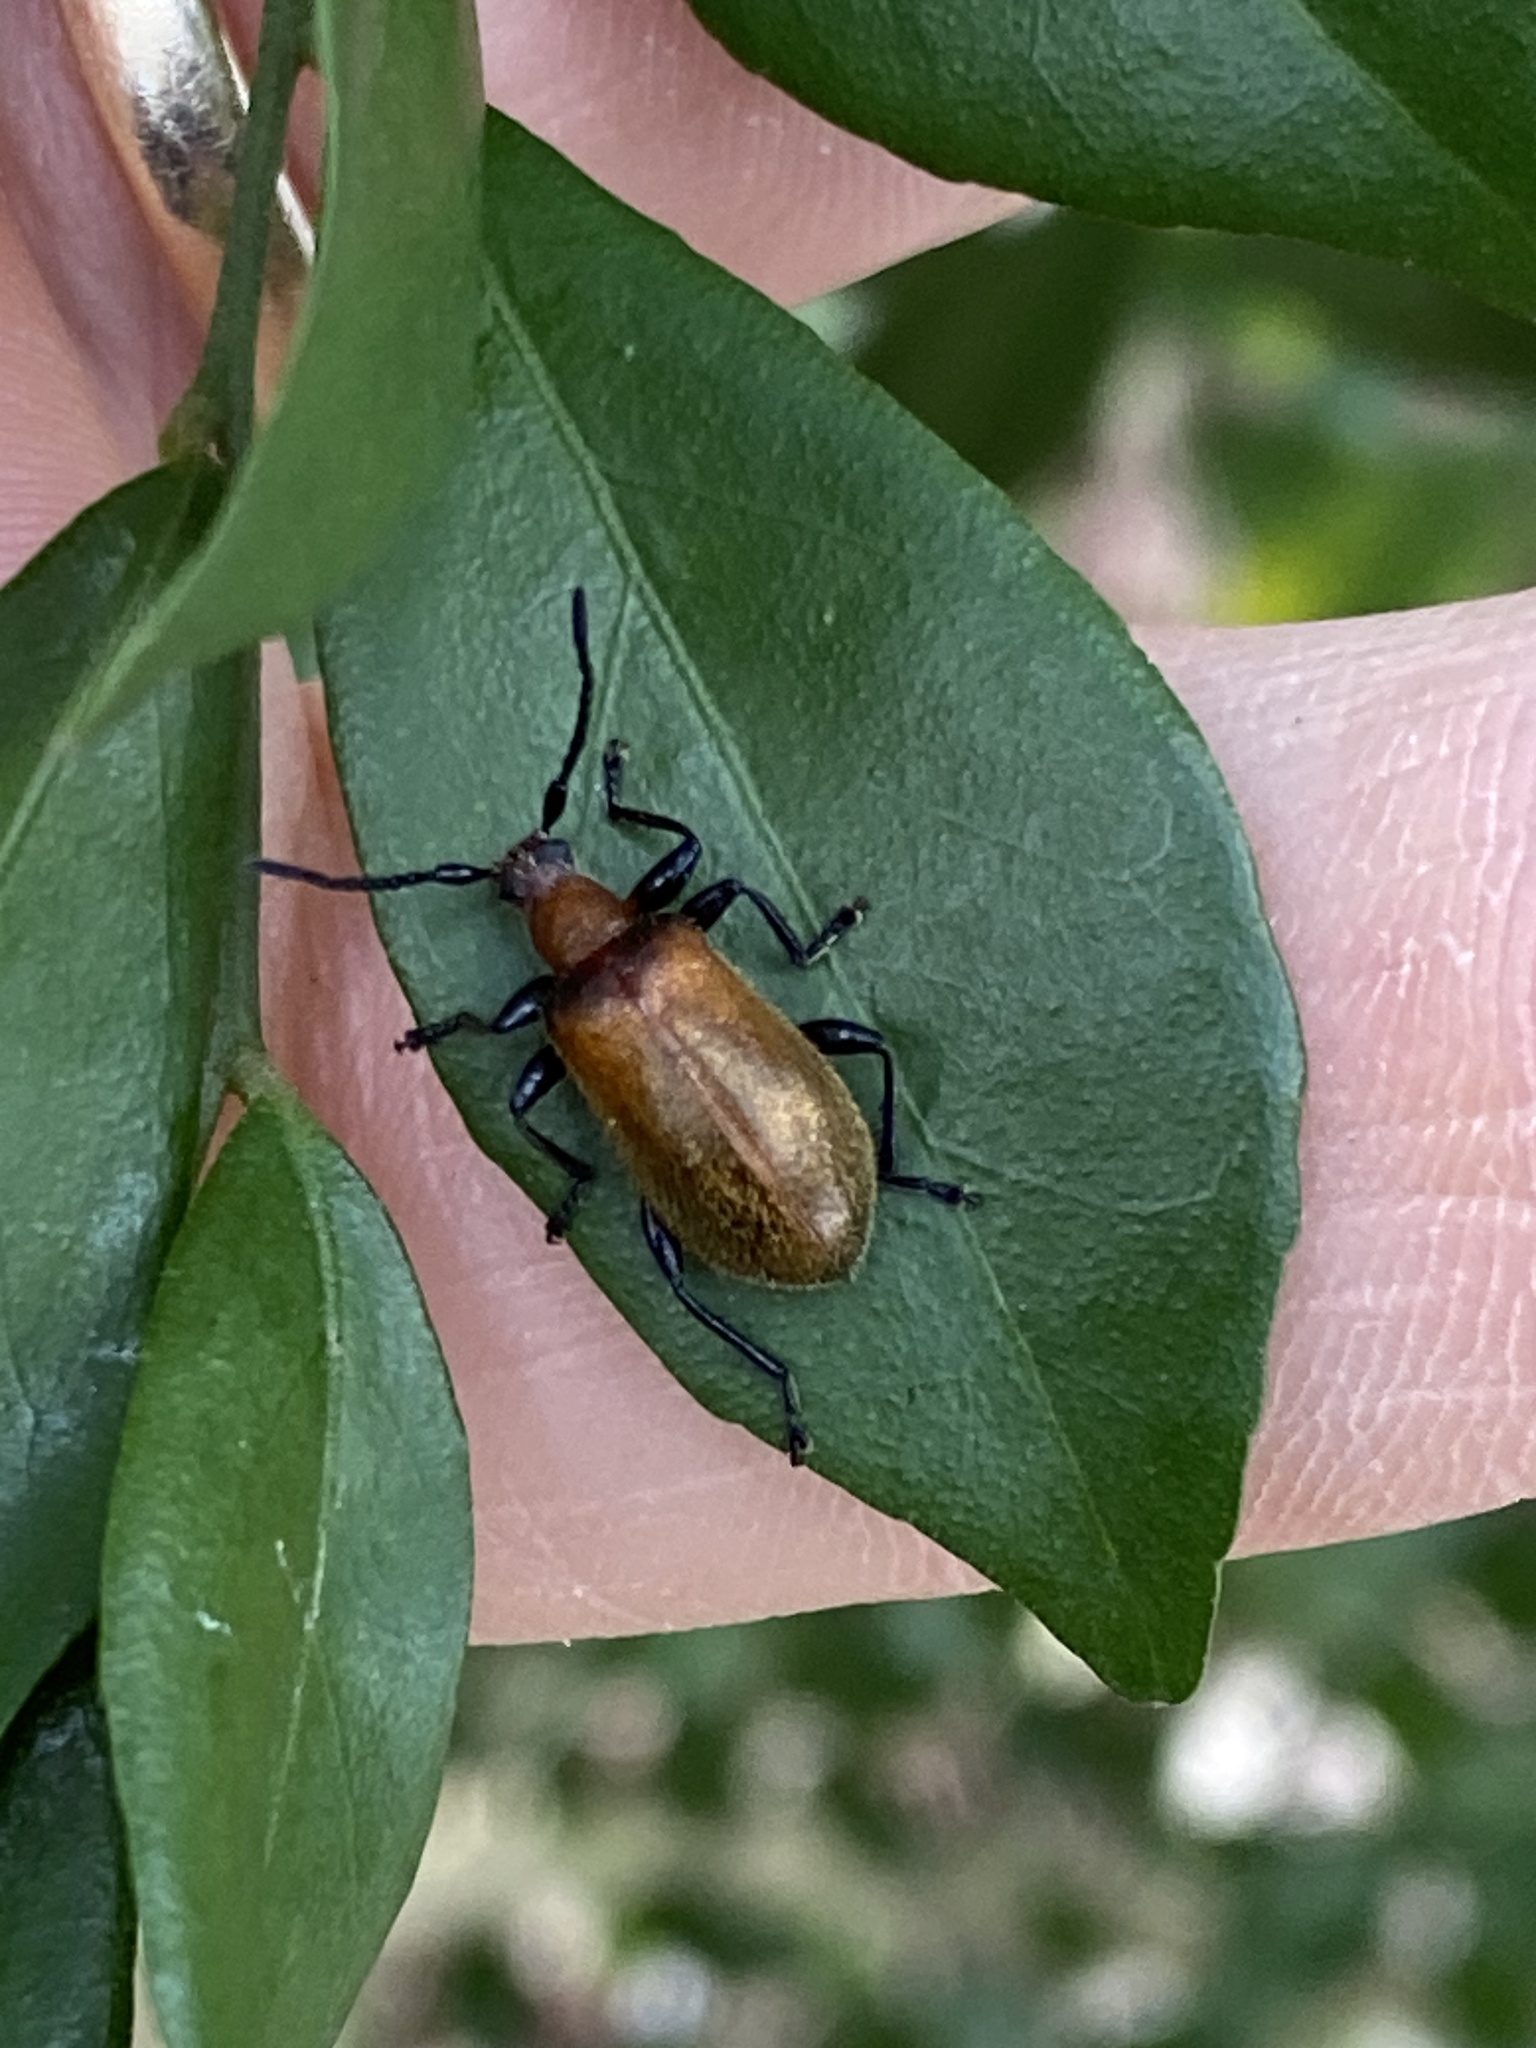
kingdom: Animalia
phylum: Arthropoda
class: Insecta
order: Coleoptera
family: Tenebrionidae
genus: Ecnolagria
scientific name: Ecnolagria
